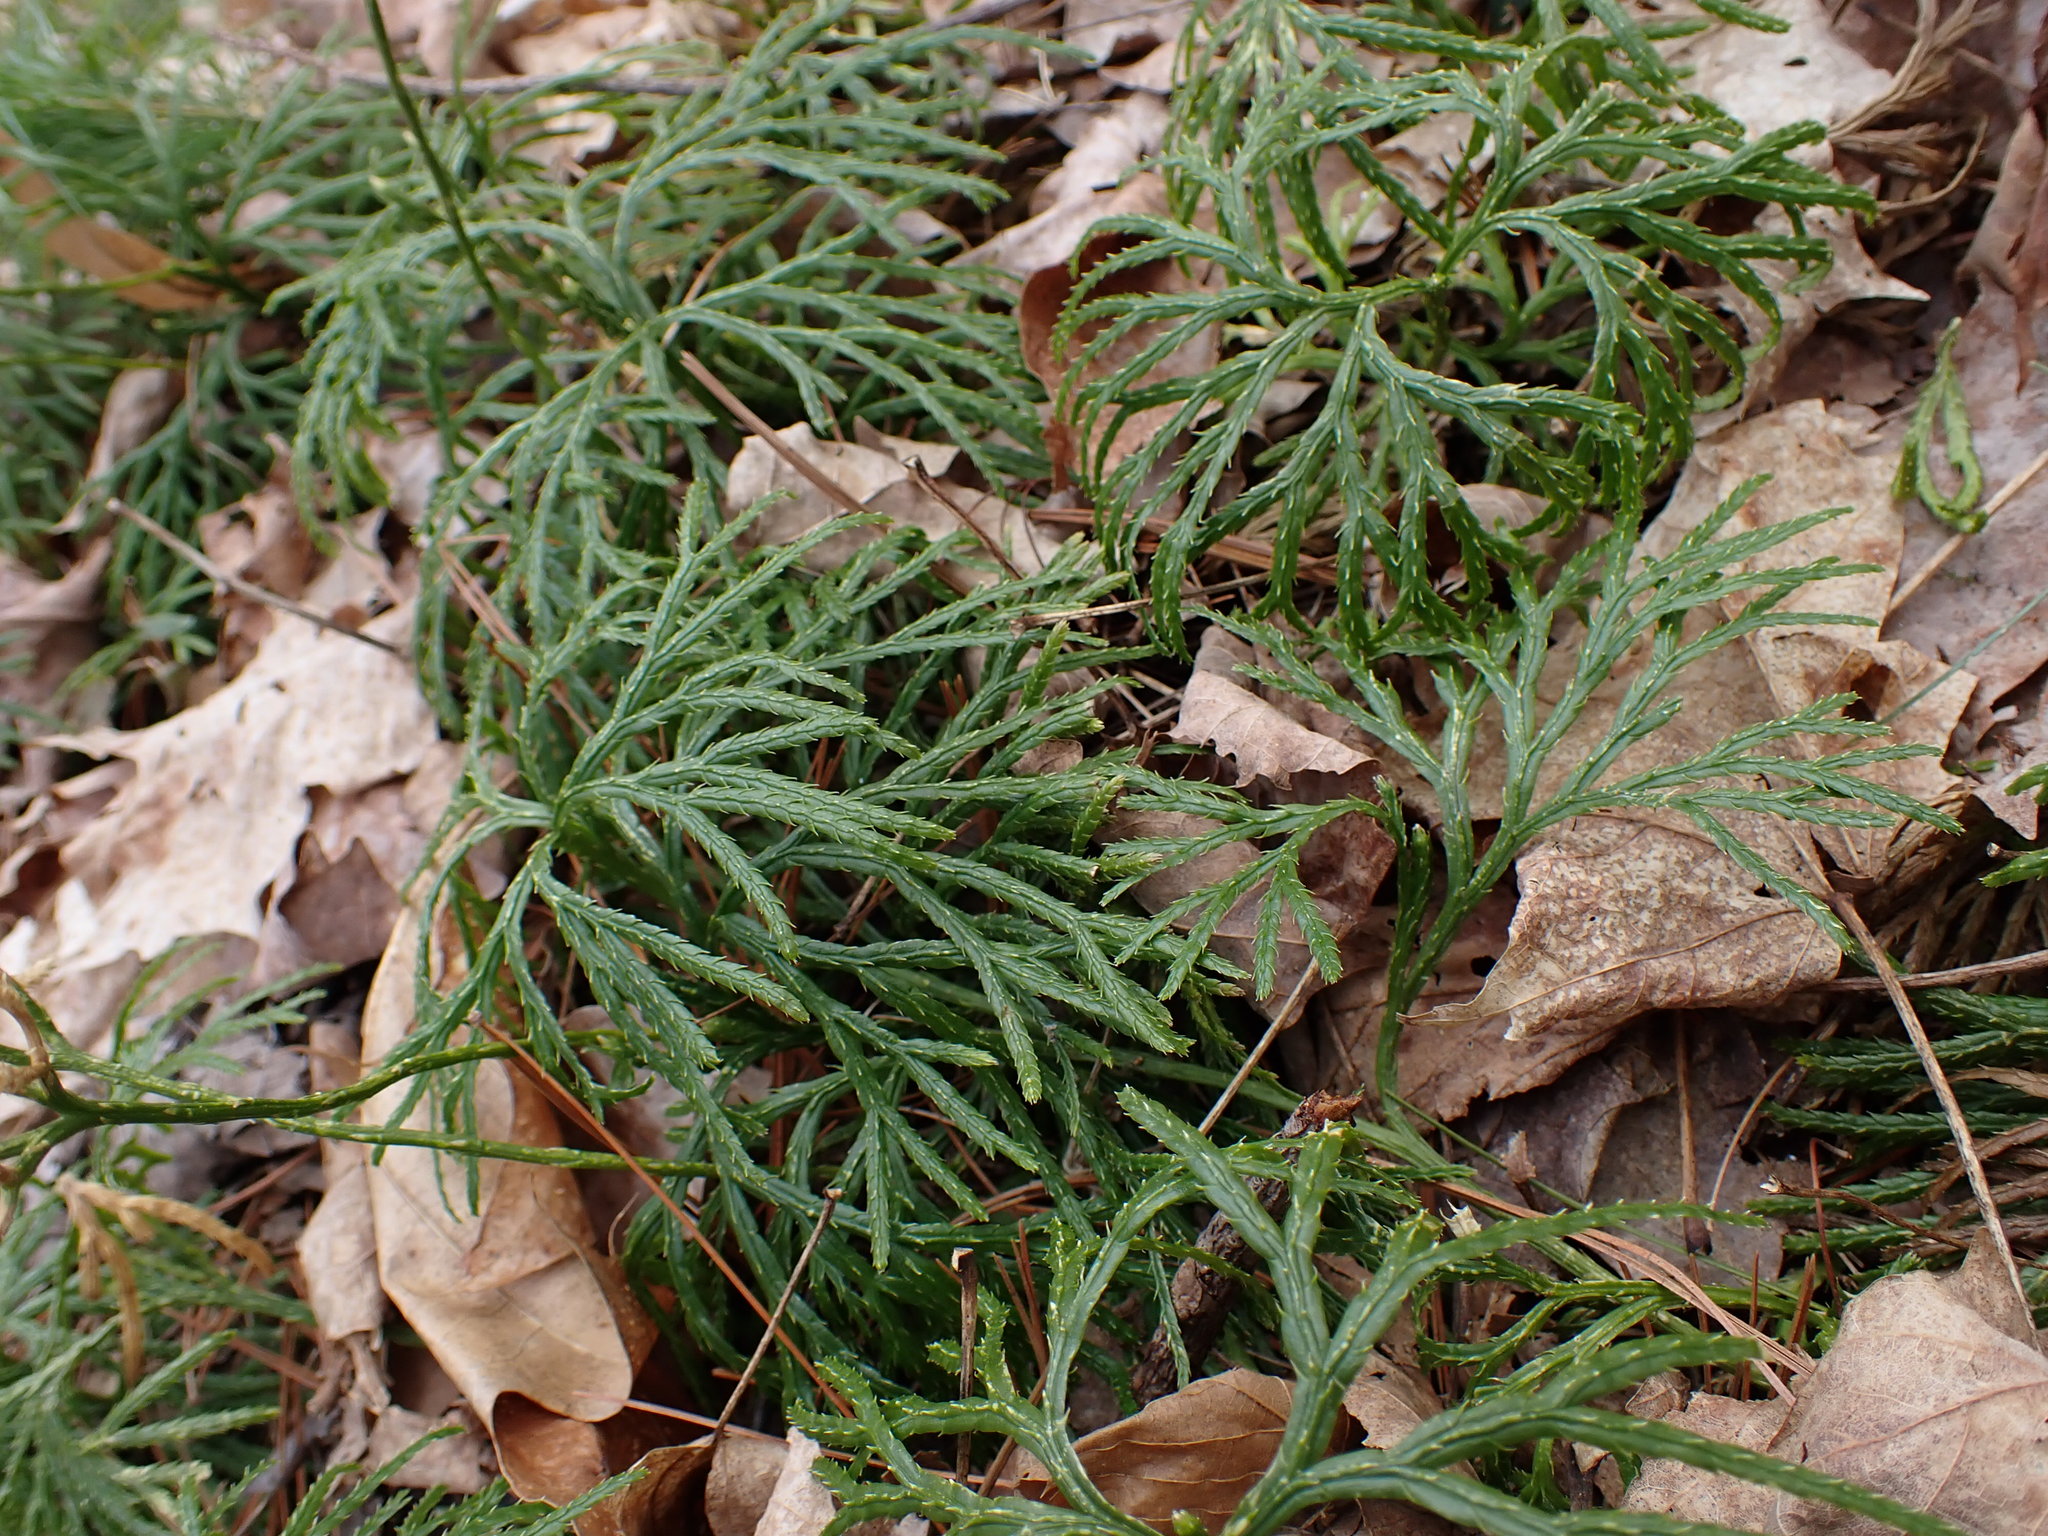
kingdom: Plantae
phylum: Tracheophyta
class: Lycopodiopsida
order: Lycopodiales
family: Lycopodiaceae
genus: Diphasiastrum
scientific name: Diphasiastrum digitatum
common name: Southern running-pine
